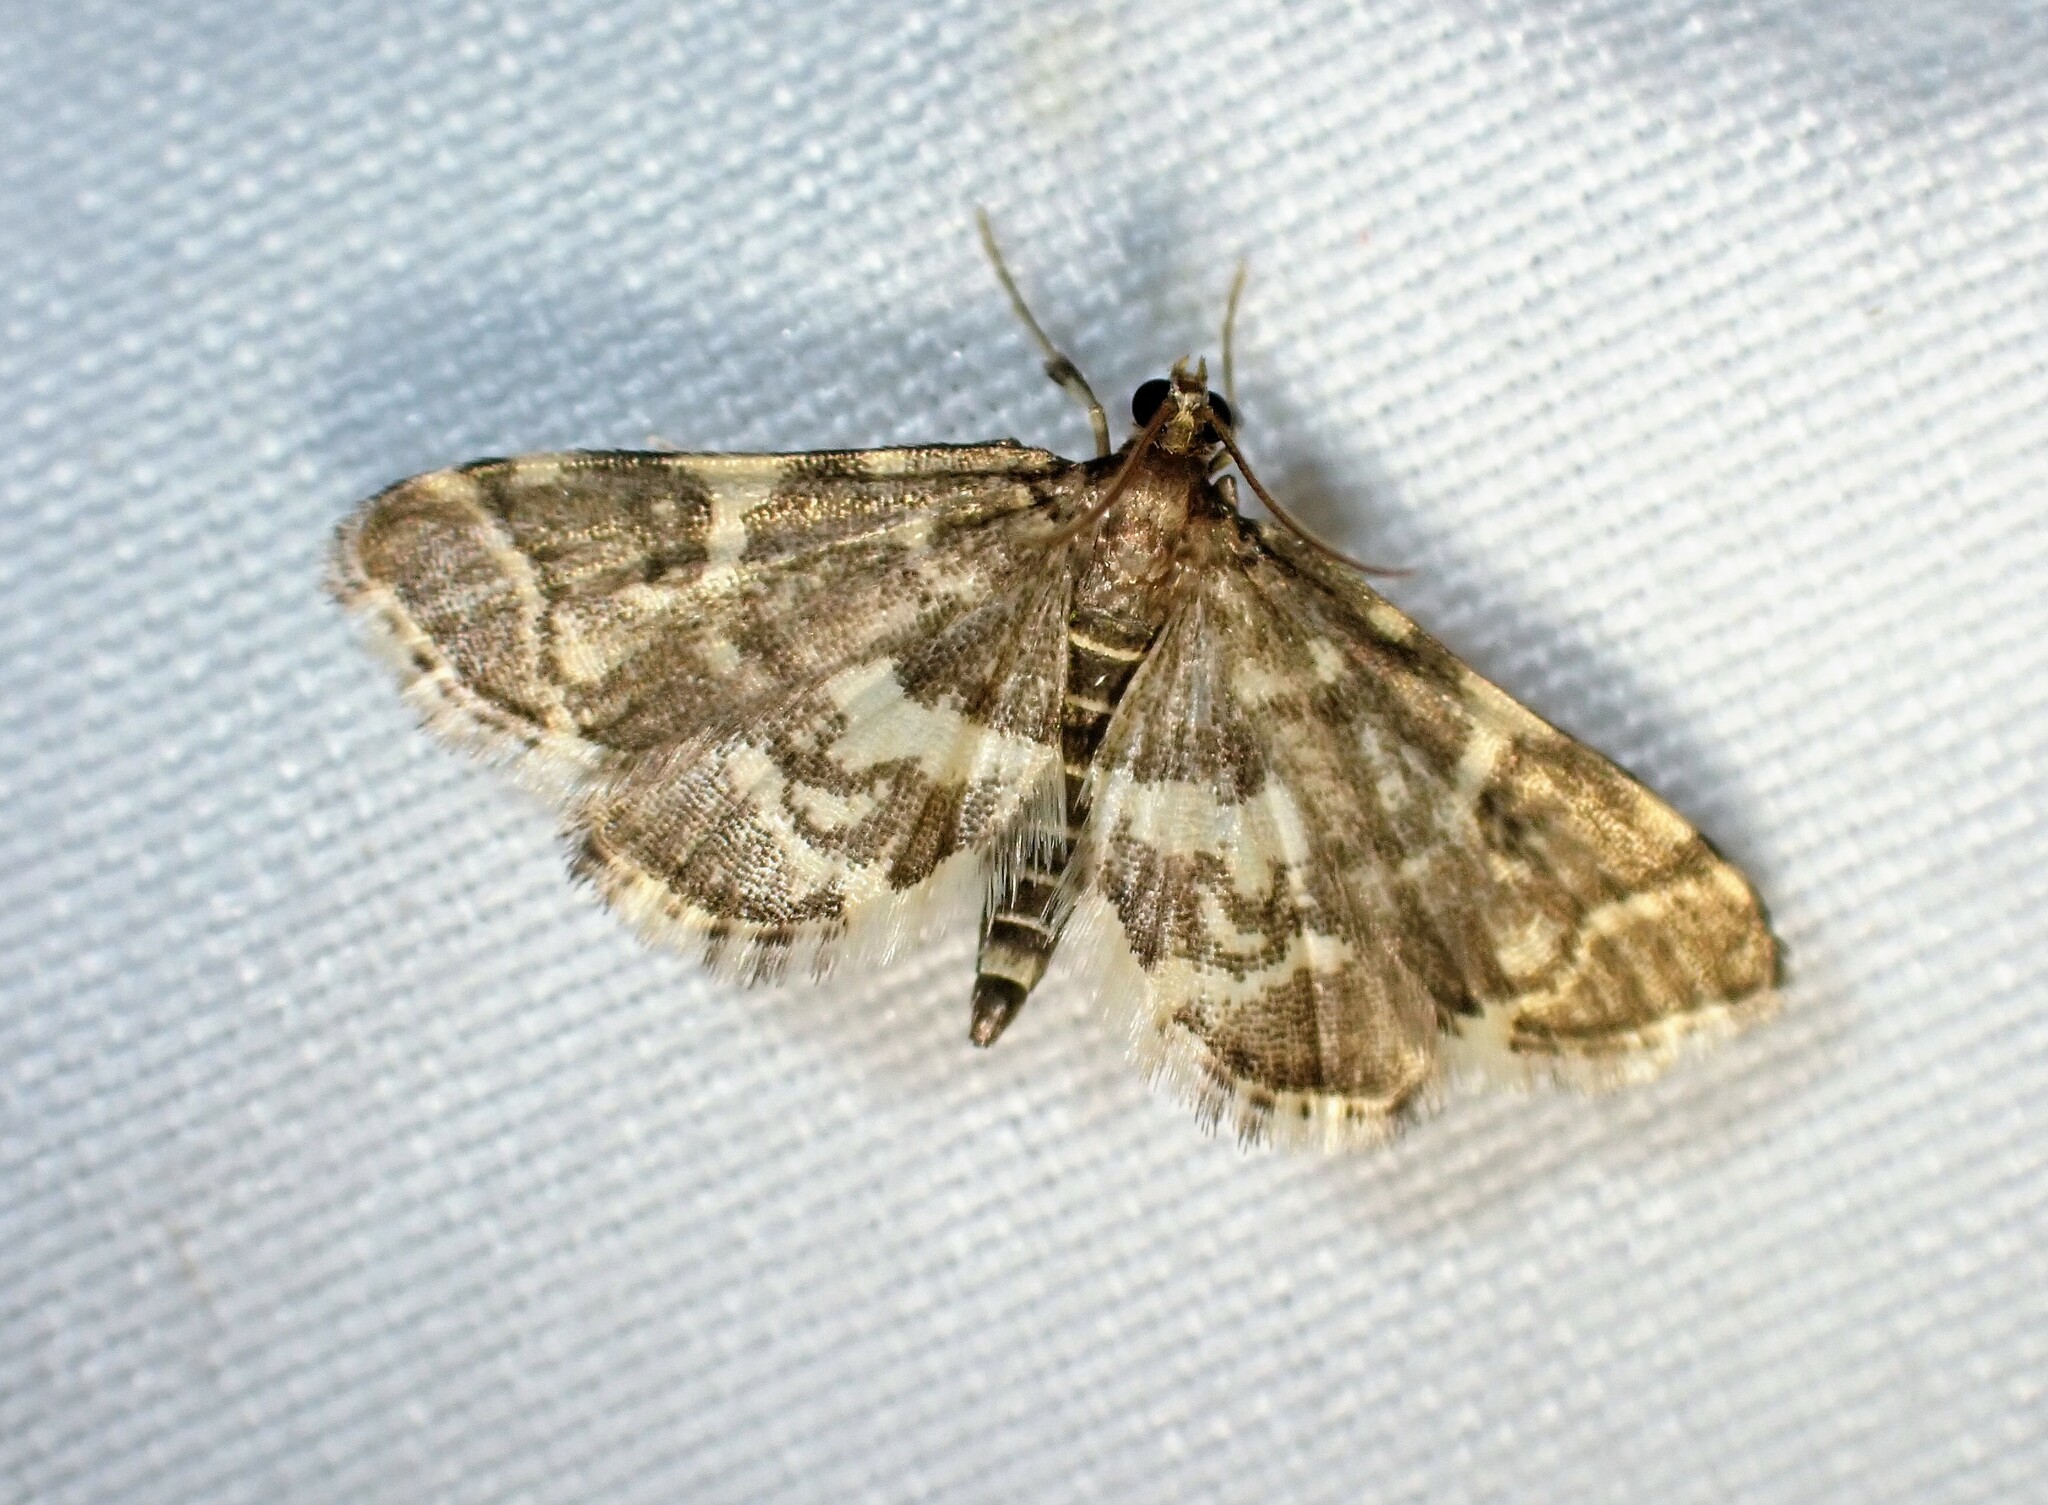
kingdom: Animalia
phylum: Arthropoda
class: Insecta
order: Lepidoptera
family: Crambidae
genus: Anageshna
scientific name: Anageshna primordialis
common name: Yellow-spotted webworm moth
